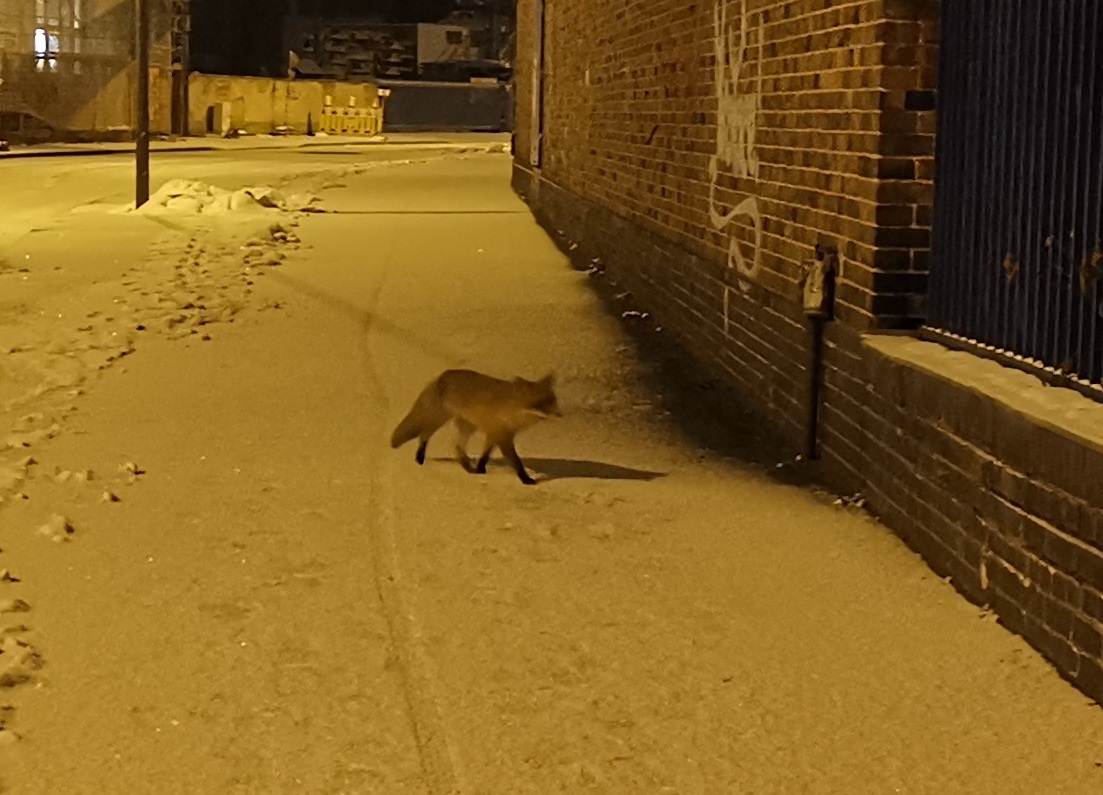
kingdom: Animalia
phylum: Chordata
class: Mammalia
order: Carnivora
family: Canidae
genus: Vulpes
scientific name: Vulpes vulpes
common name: Red fox
